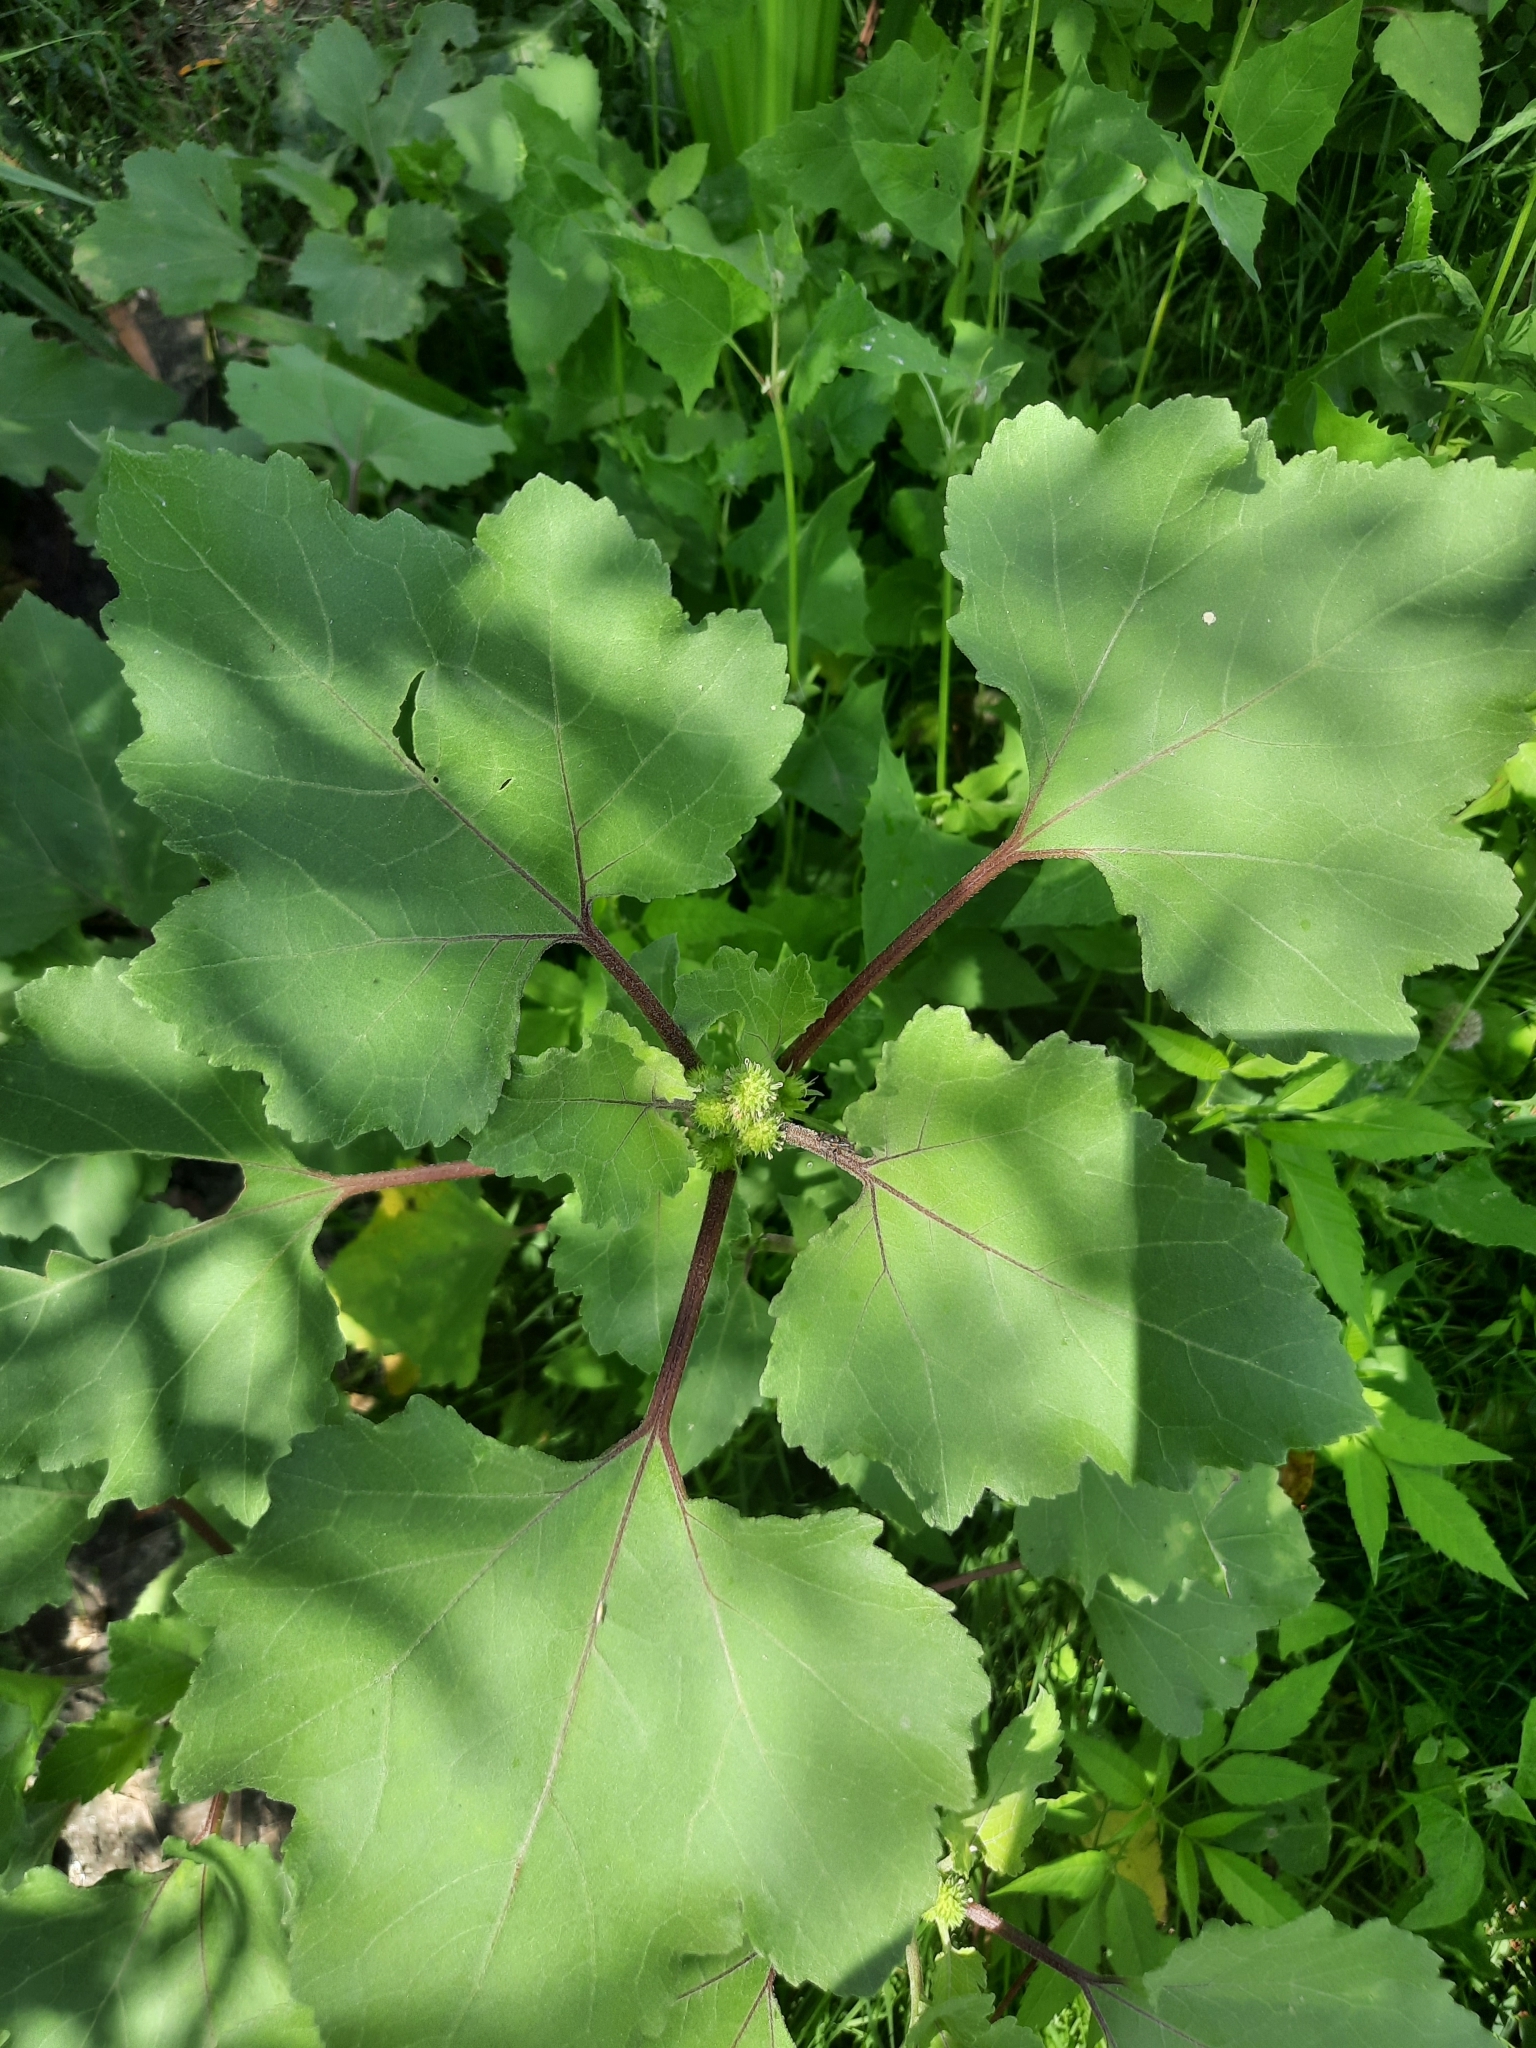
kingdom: Plantae
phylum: Tracheophyta
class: Magnoliopsida
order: Asterales
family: Asteraceae
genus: Xanthium
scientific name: Xanthium orientale
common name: Californian burr
